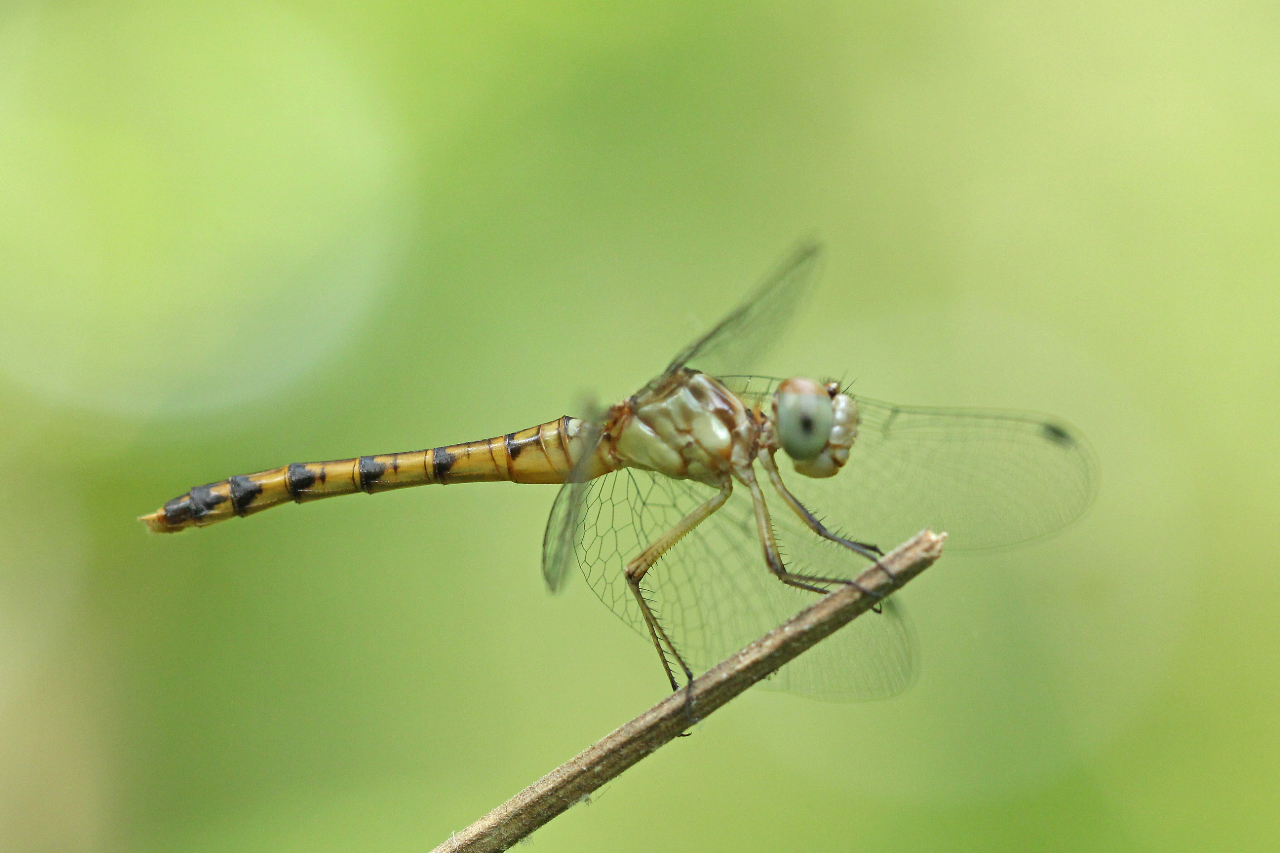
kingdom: Animalia
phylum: Arthropoda
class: Insecta
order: Odonata
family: Libellulidae
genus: Sympetrum
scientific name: Sympetrum ambiguum
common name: Blue-faced meadowhawk
